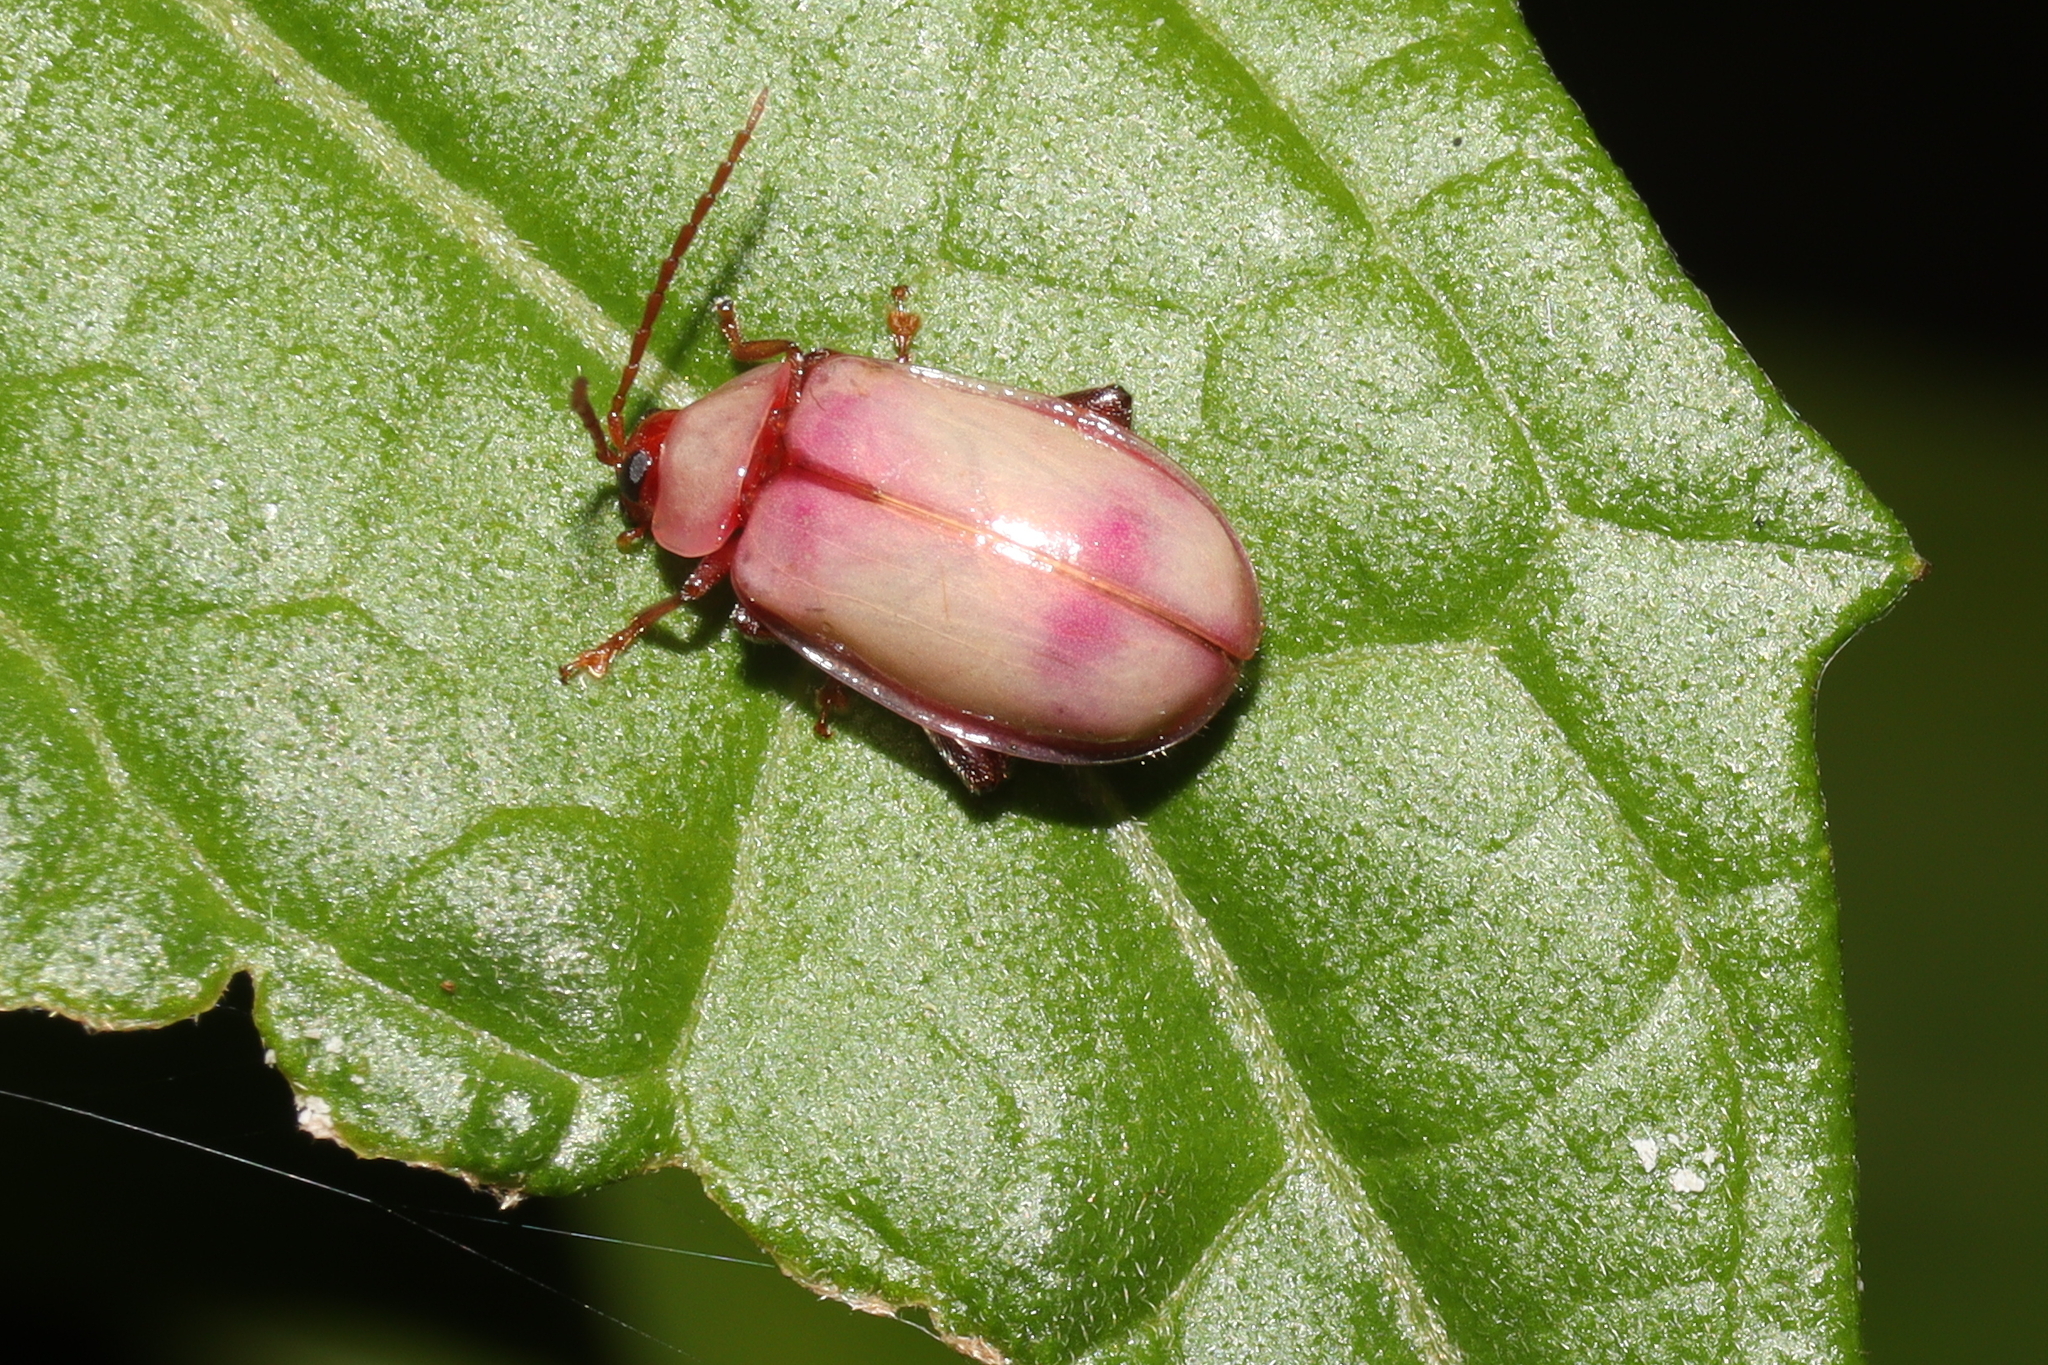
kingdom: Animalia
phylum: Arthropoda
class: Insecta
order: Coleoptera
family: Chrysomelidae
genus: Asphaera
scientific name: Asphaera
